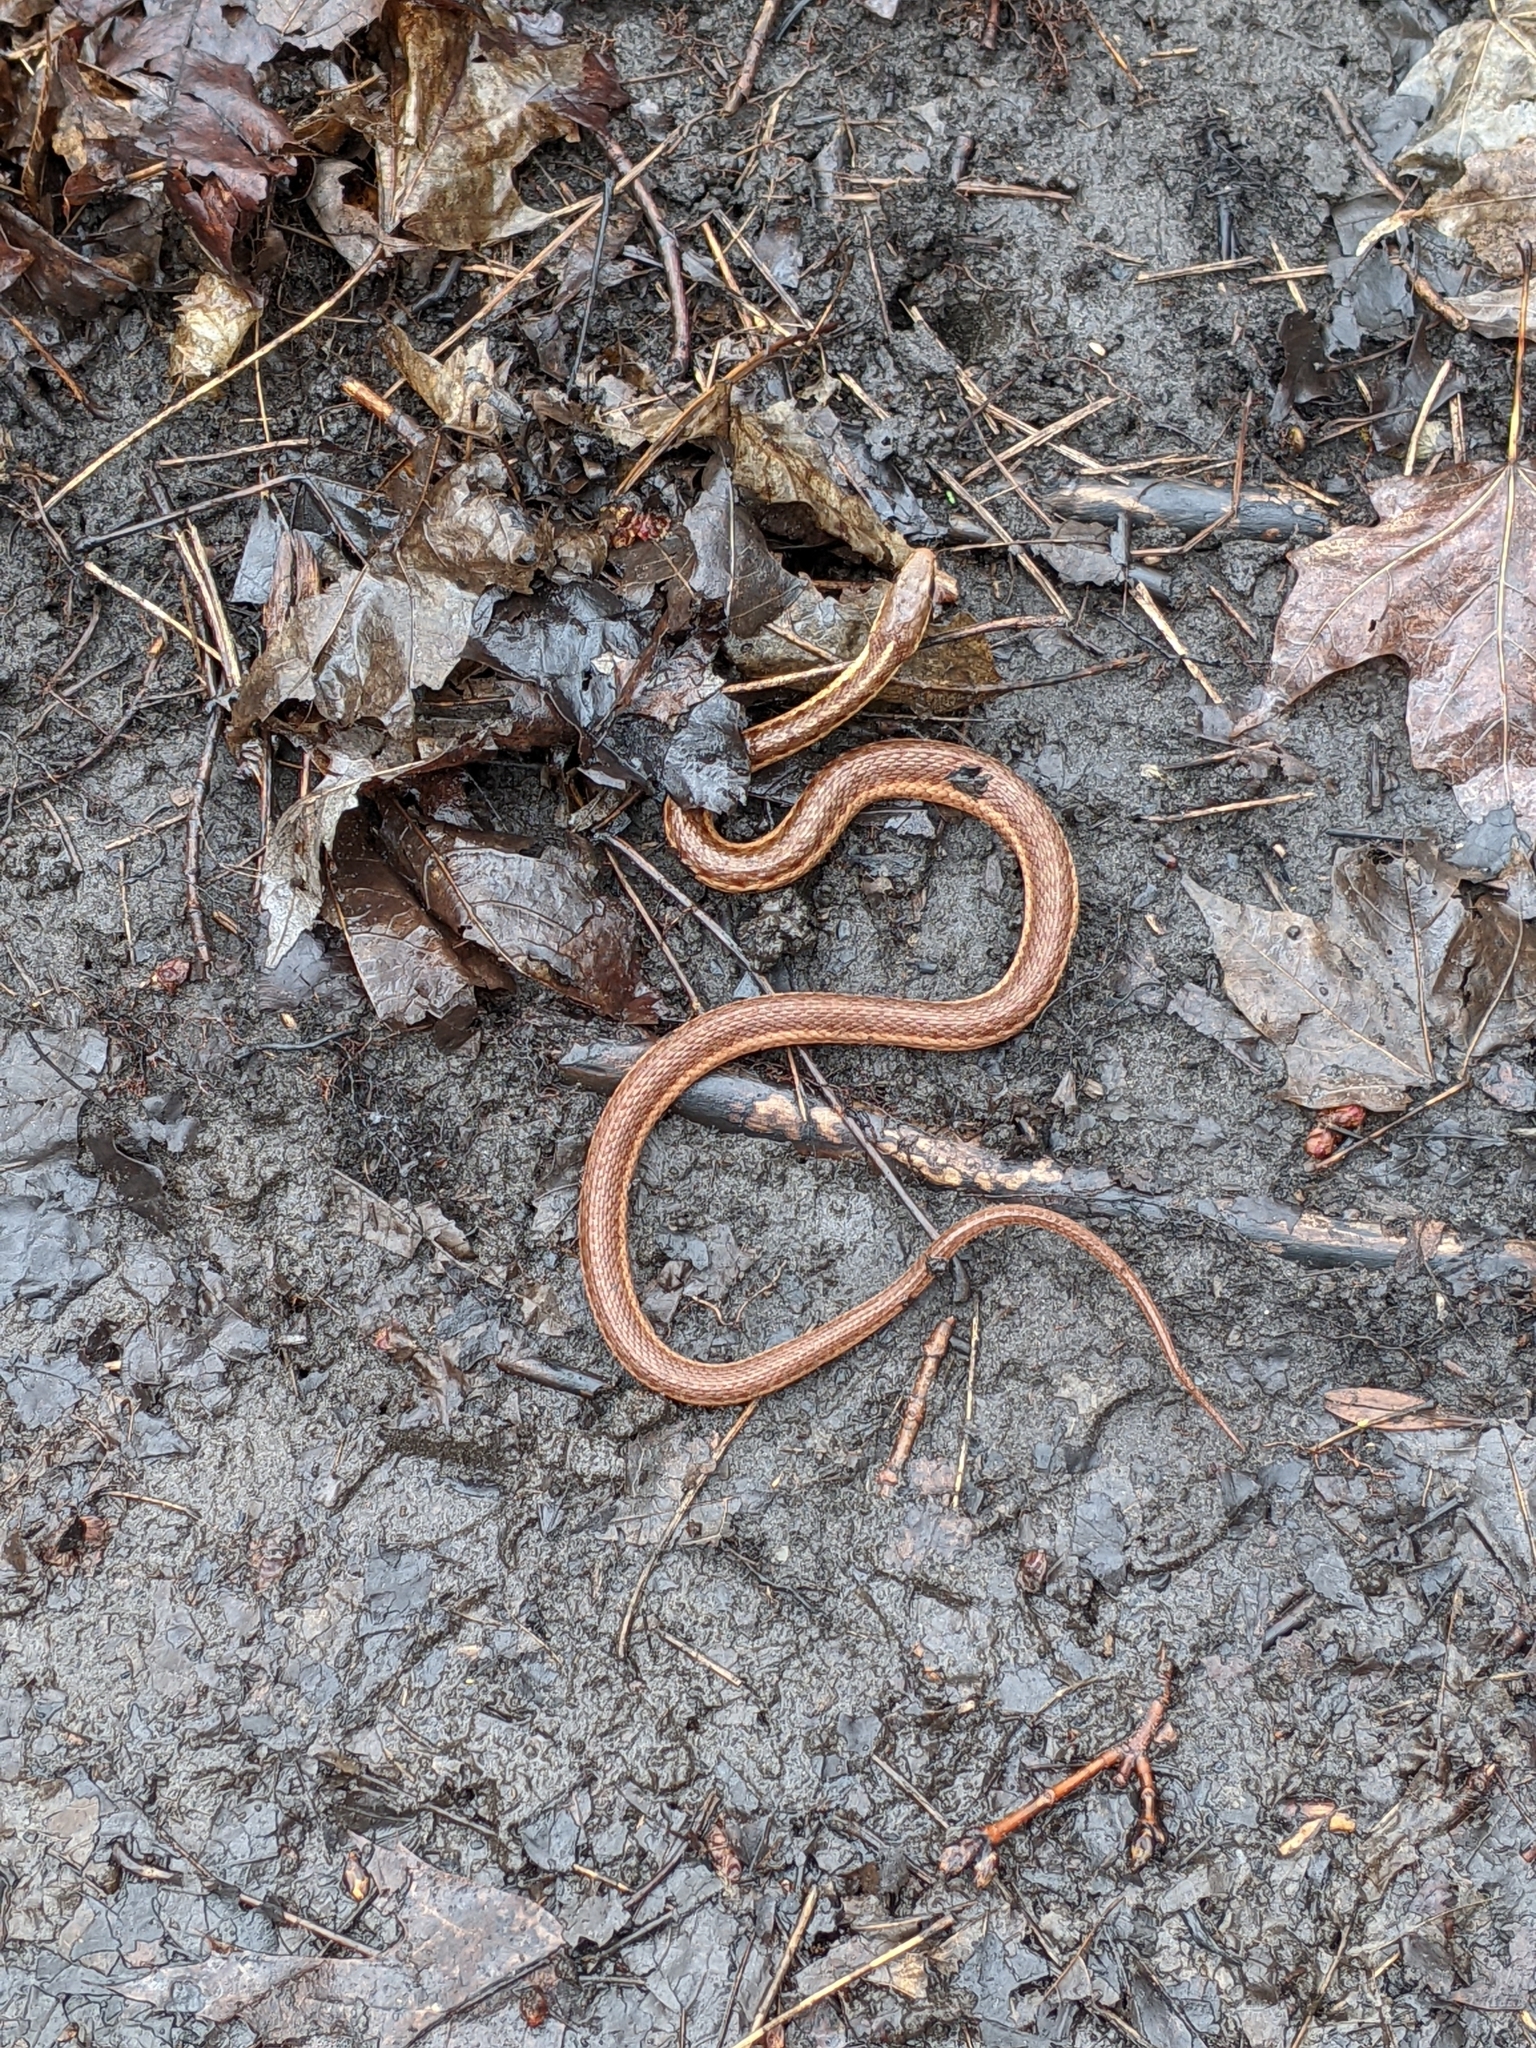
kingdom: Animalia
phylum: Chordata
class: Squamata
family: Colubridae
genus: Thamnophis
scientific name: Thamnophis sirtalis
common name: Common garter snake
